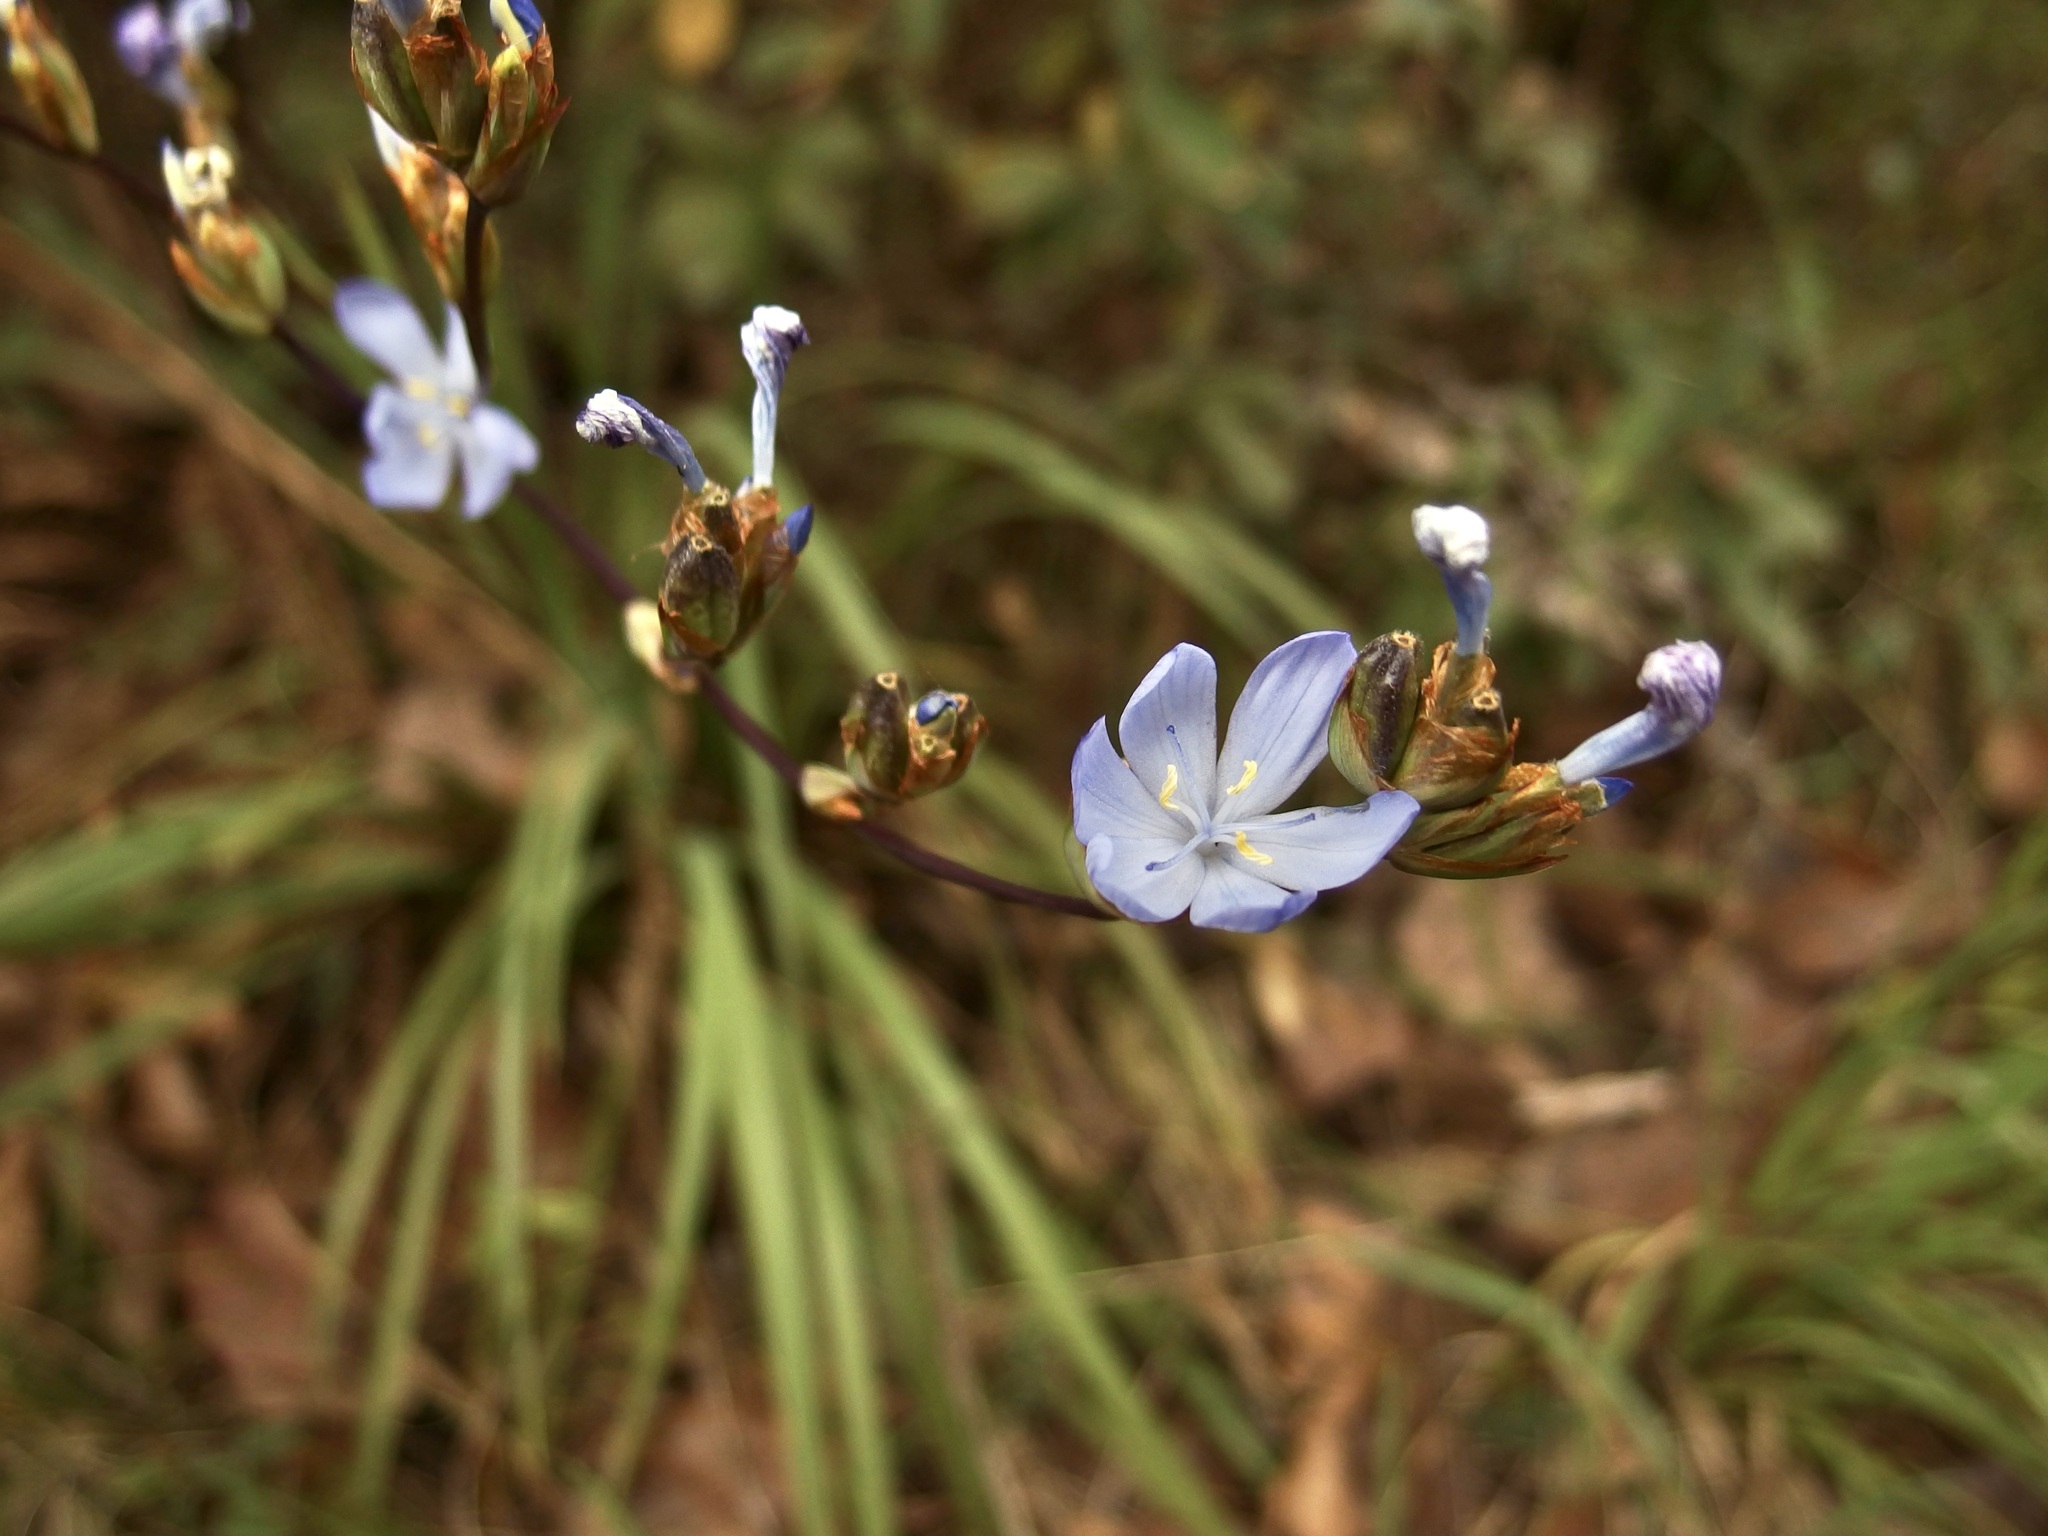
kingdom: Plantae
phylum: Tracheophyta
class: Liliopsida
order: Asparagales
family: Iridaceae
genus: Orthrosanthus
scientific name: Orthrosanthus monadelphus
